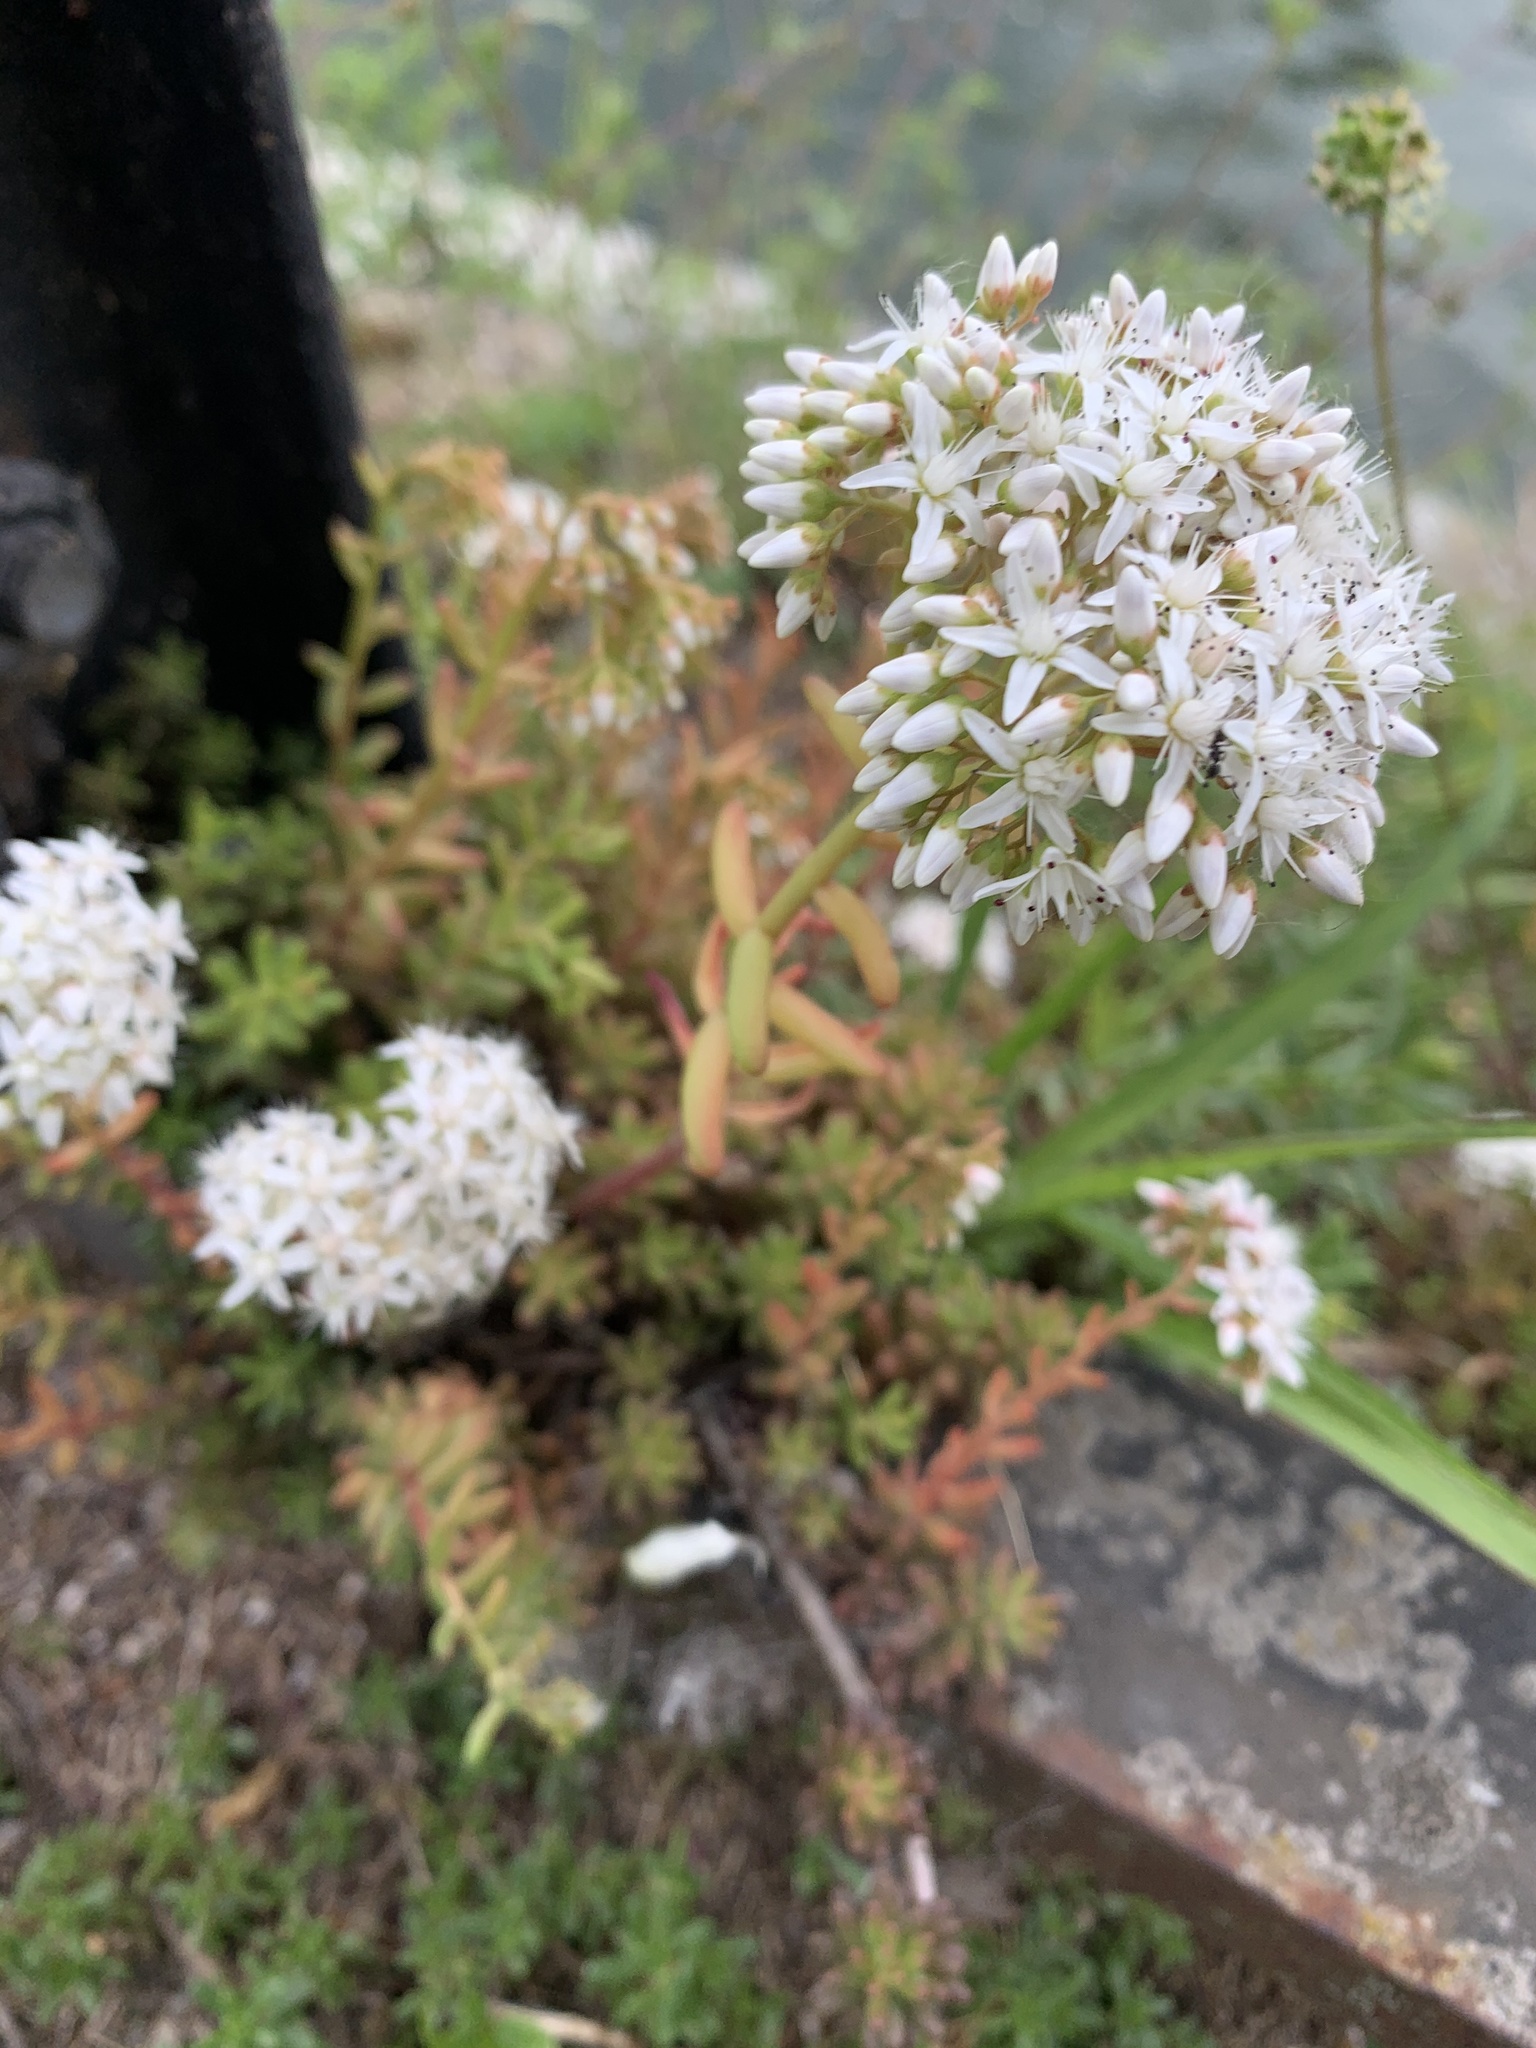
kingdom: Plantae
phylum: Tracheophyta
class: Magnoliopsida
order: Saxifragales
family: Crassulaceae
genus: Sedum
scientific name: Sedum album
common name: White stonecrop
